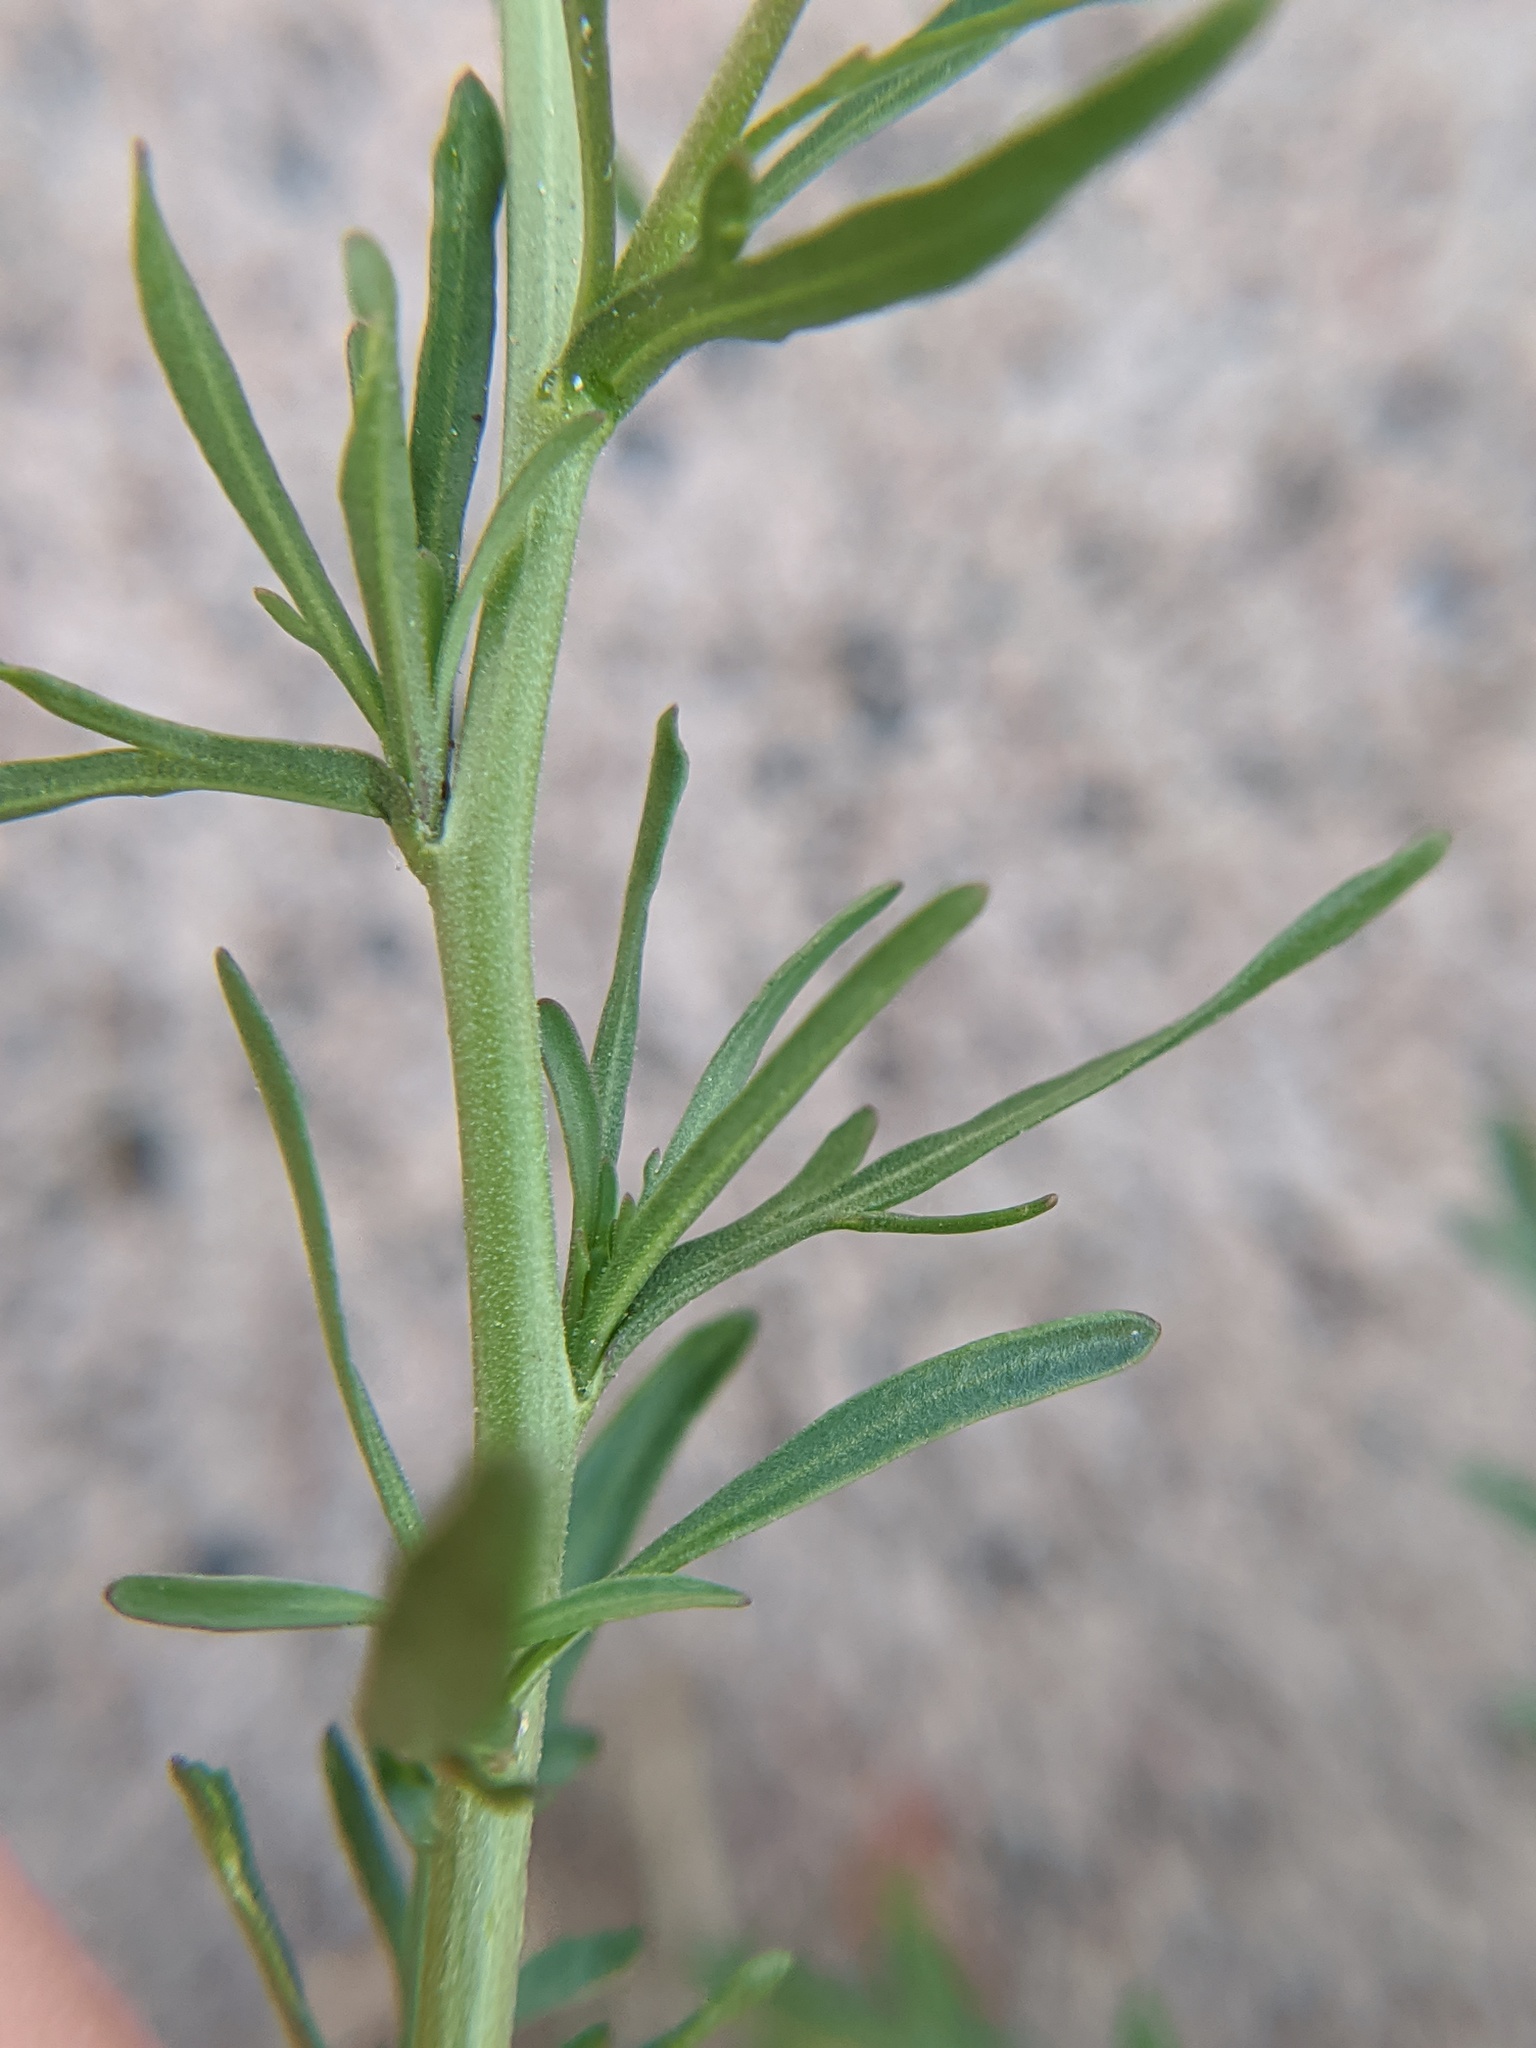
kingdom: Plantae
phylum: Tracheophyta
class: Magnoliopsida
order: Brassicales
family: Brassicaceae
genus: Lepidium
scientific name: Lepidium densiflorum
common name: Miner's pepperwort
